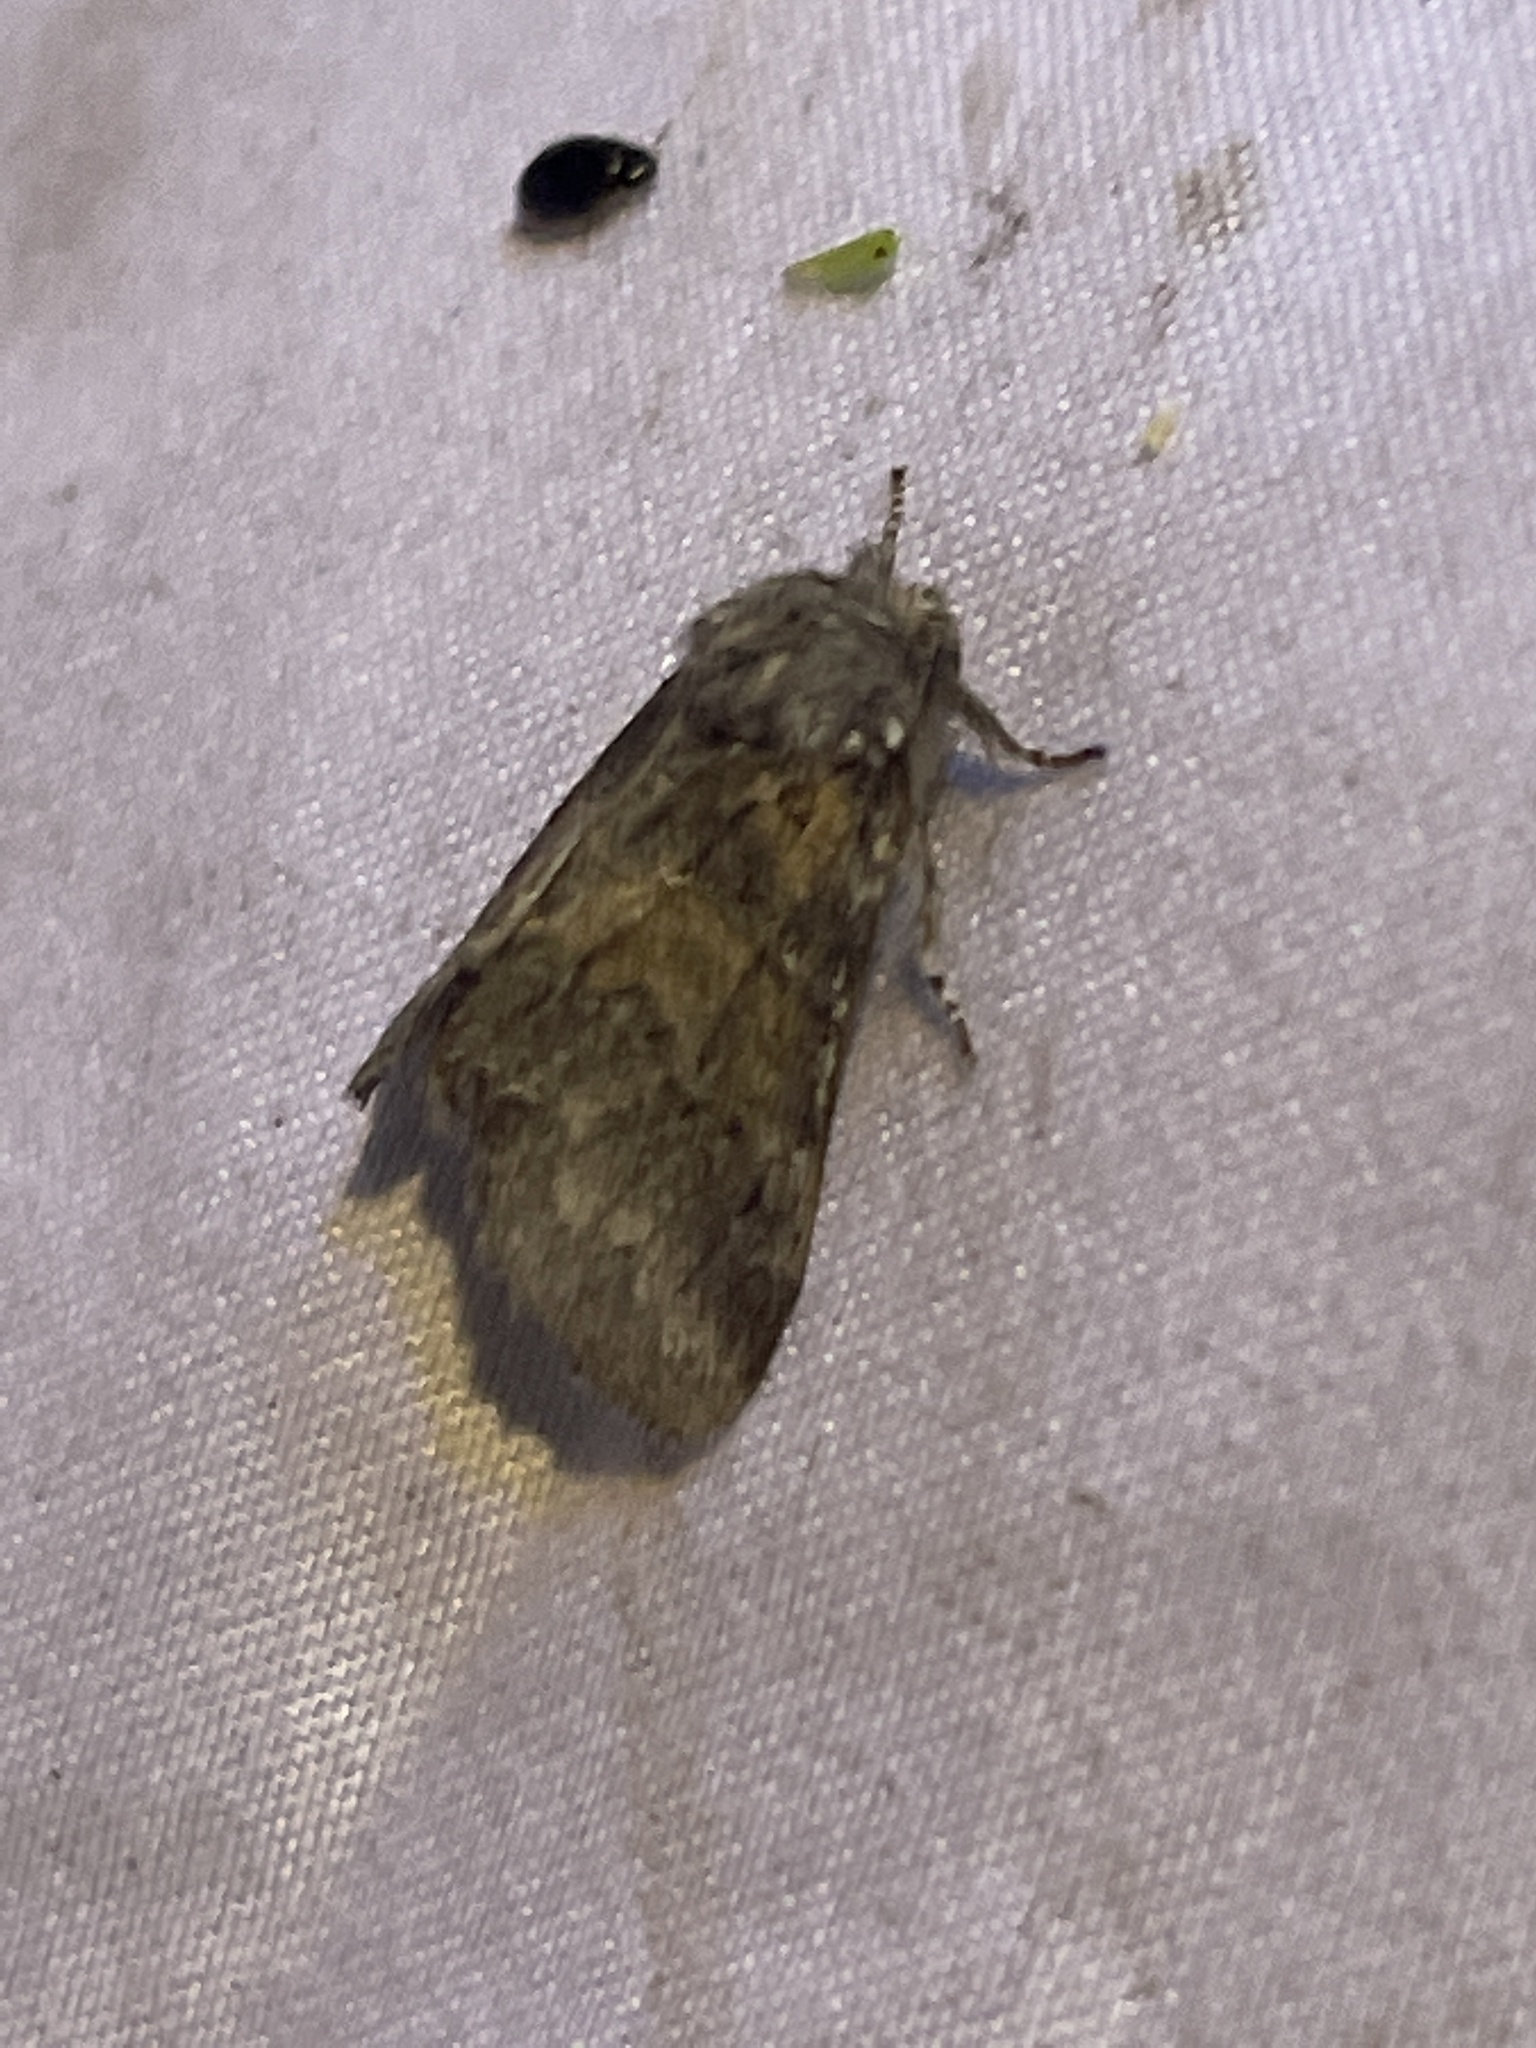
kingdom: Animalia
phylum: Arthropoda
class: Insecta
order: Lepidoptera
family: Notodontidae
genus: Gluphisia
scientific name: Gluphisia septentrionis
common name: Common gluphisia
